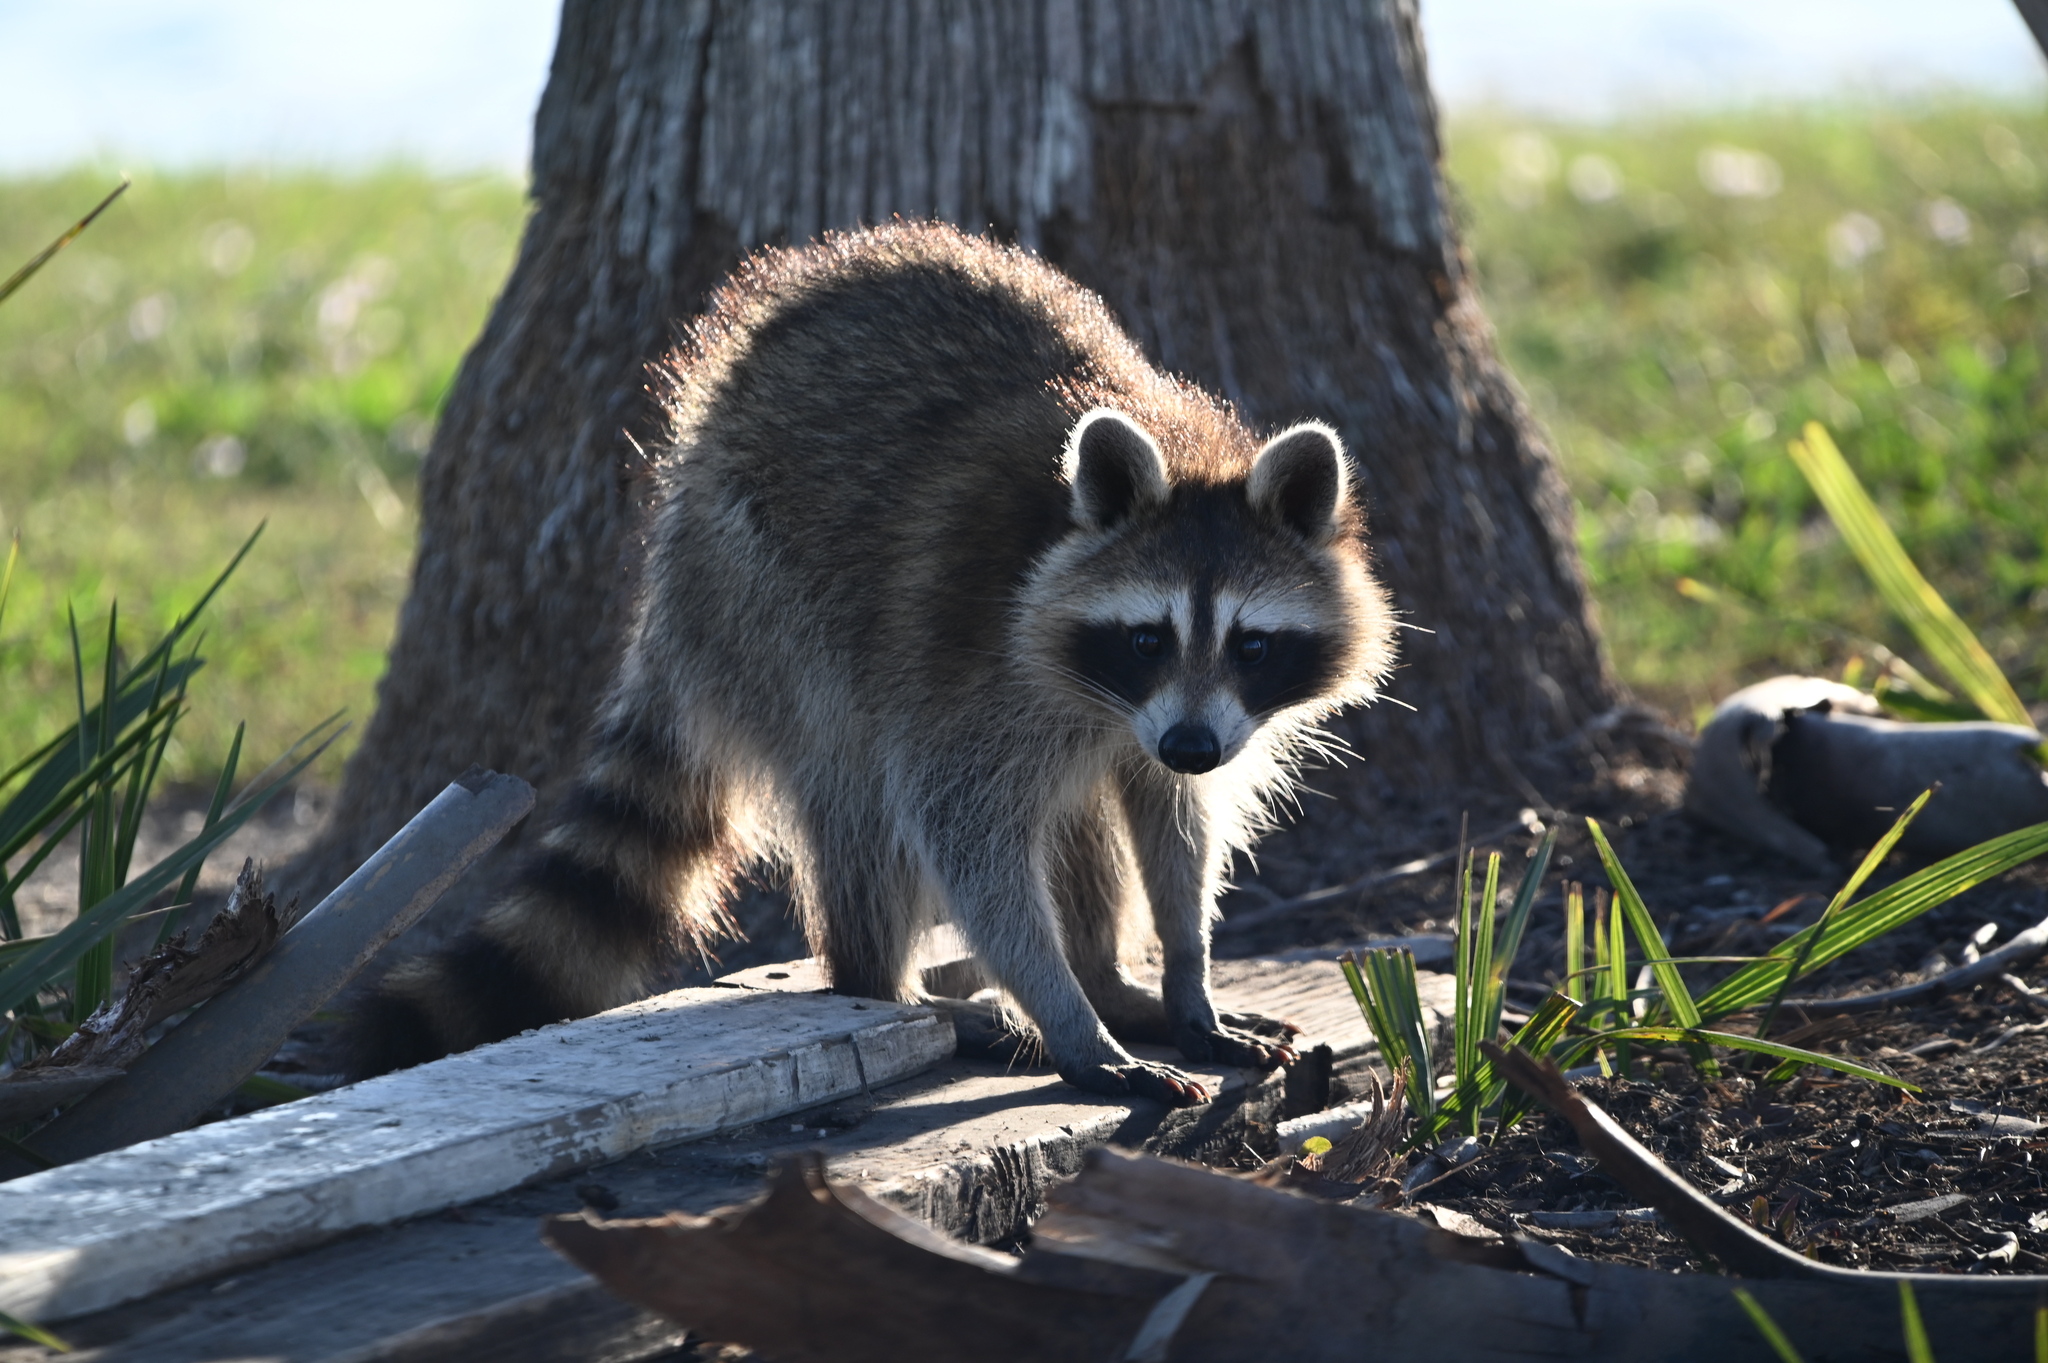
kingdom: Animalia
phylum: Chordata
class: Mammalia
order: Carnivora
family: Procyonidae
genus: Procyon
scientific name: Procyon lotor
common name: Raccoon
